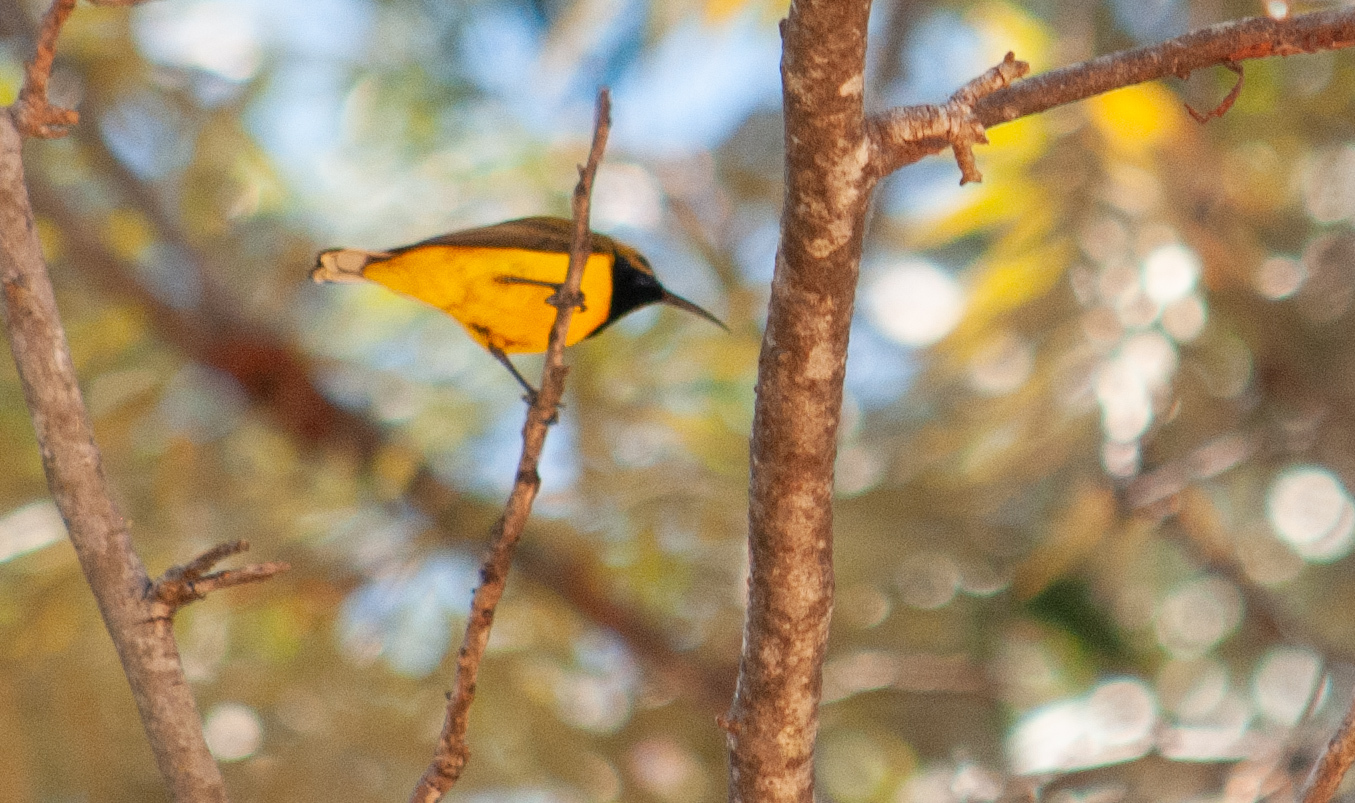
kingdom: Animalia
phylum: Chordata
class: Aves
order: Passeriformes
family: Nectariniidae
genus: Cinnyris
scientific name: Cinnyris
